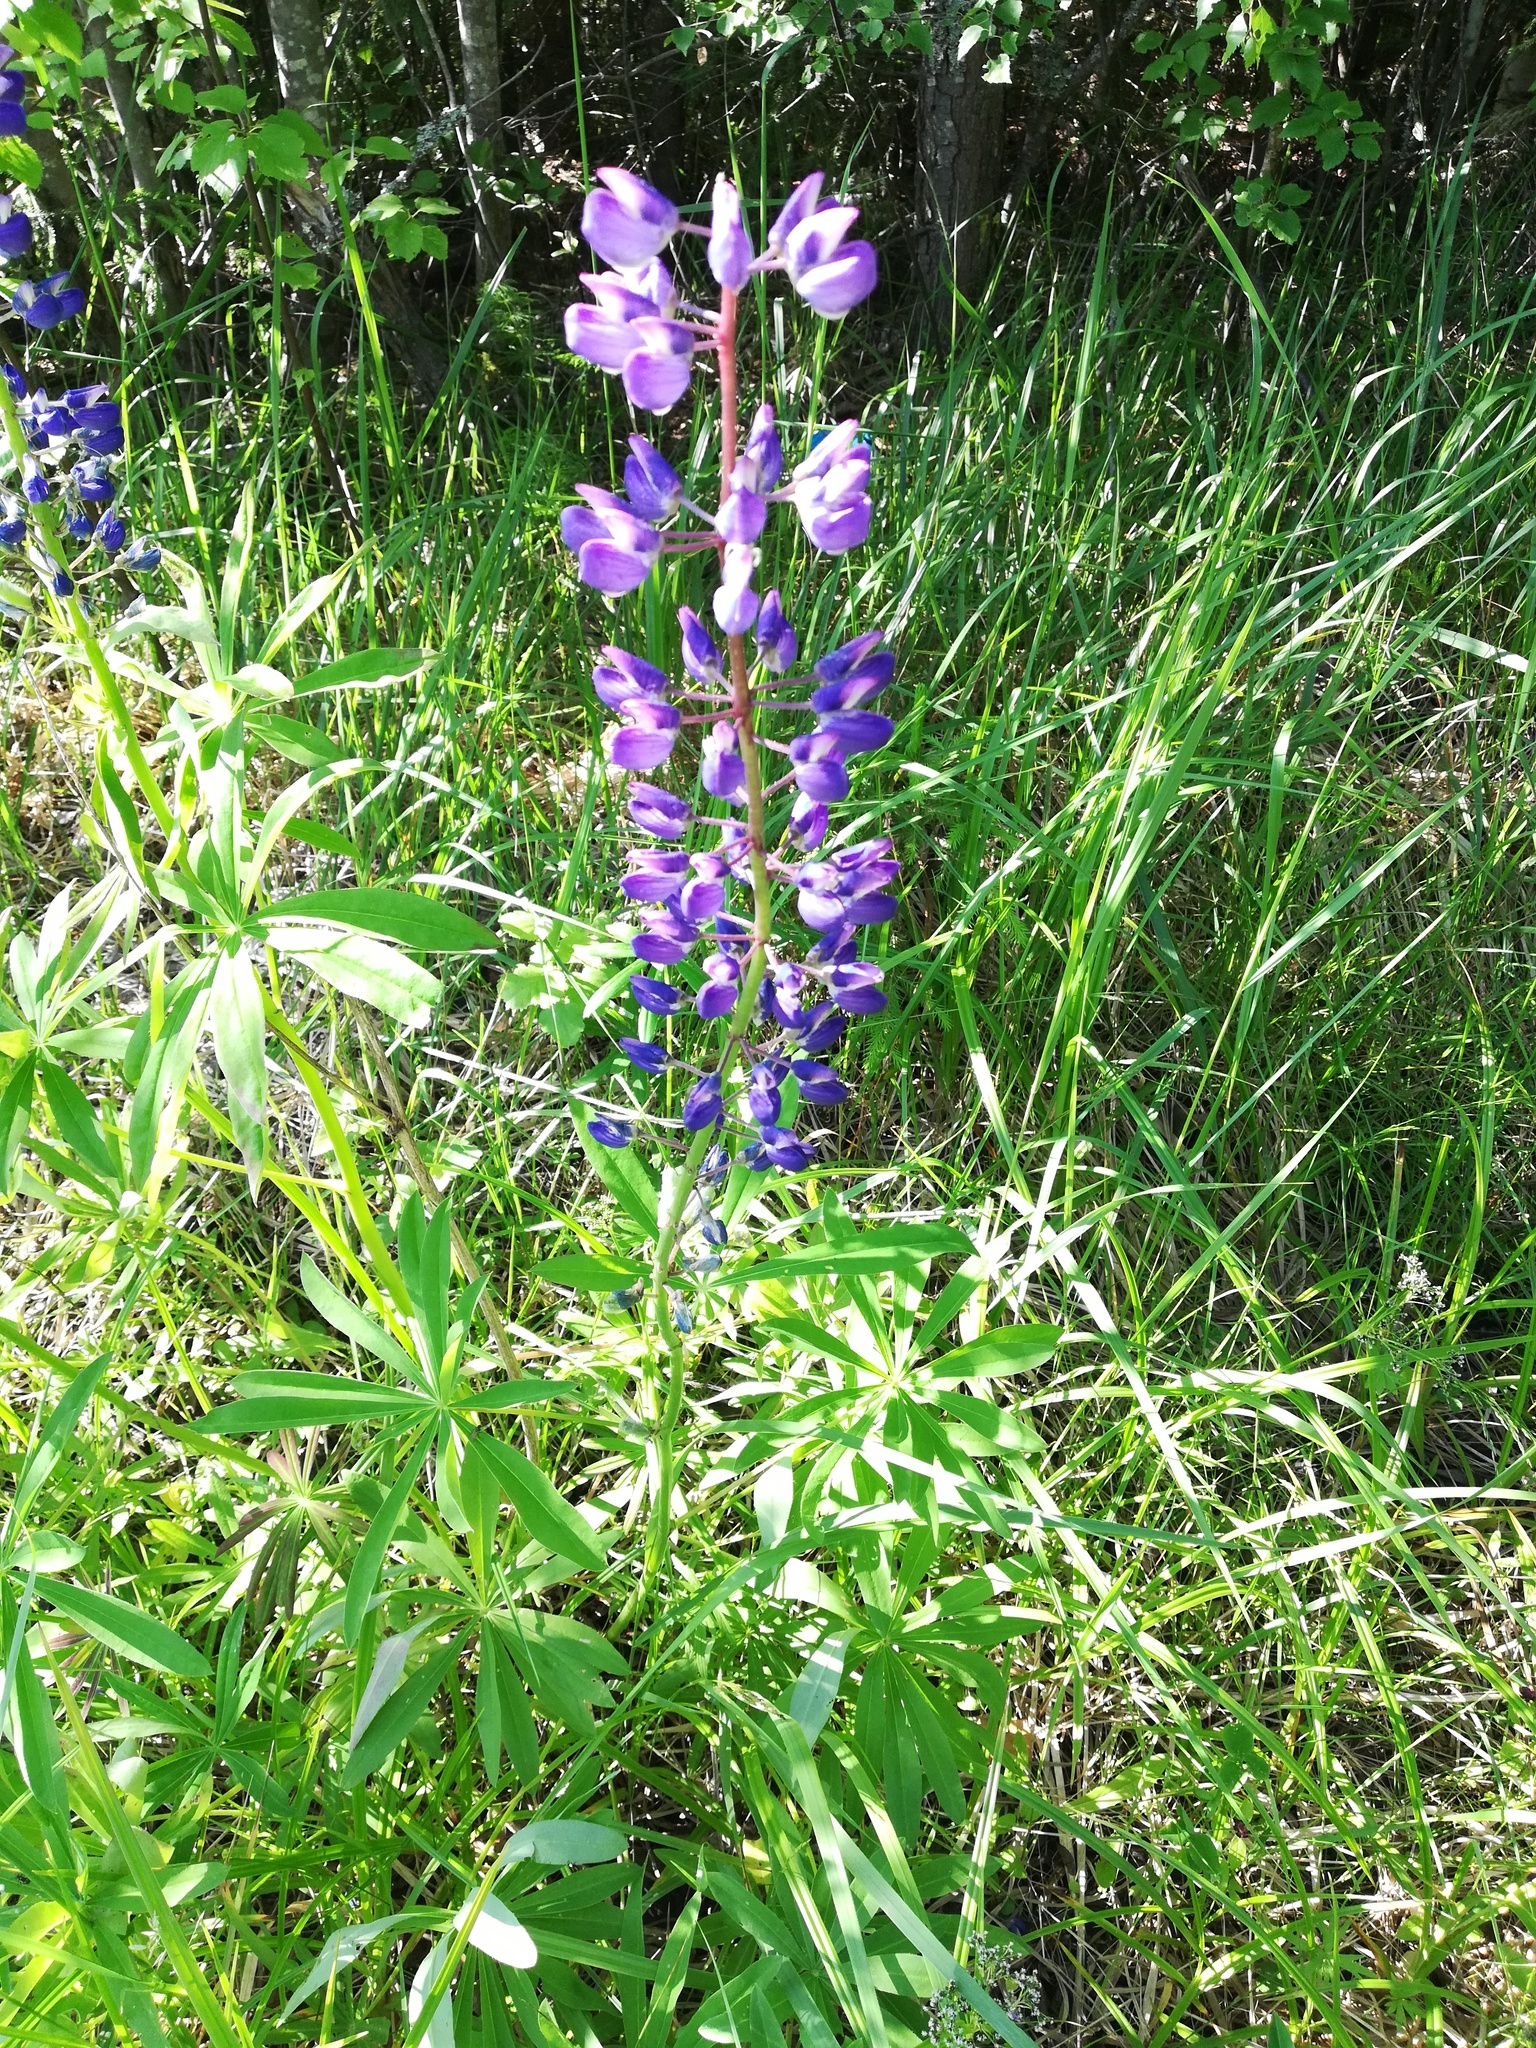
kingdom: Plantae
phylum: Tracheophyta
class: Magnoliopsida
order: Fabales
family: Fabaceae
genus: Lupinus
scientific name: Lupinus polyphyllus
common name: Garden lupin
